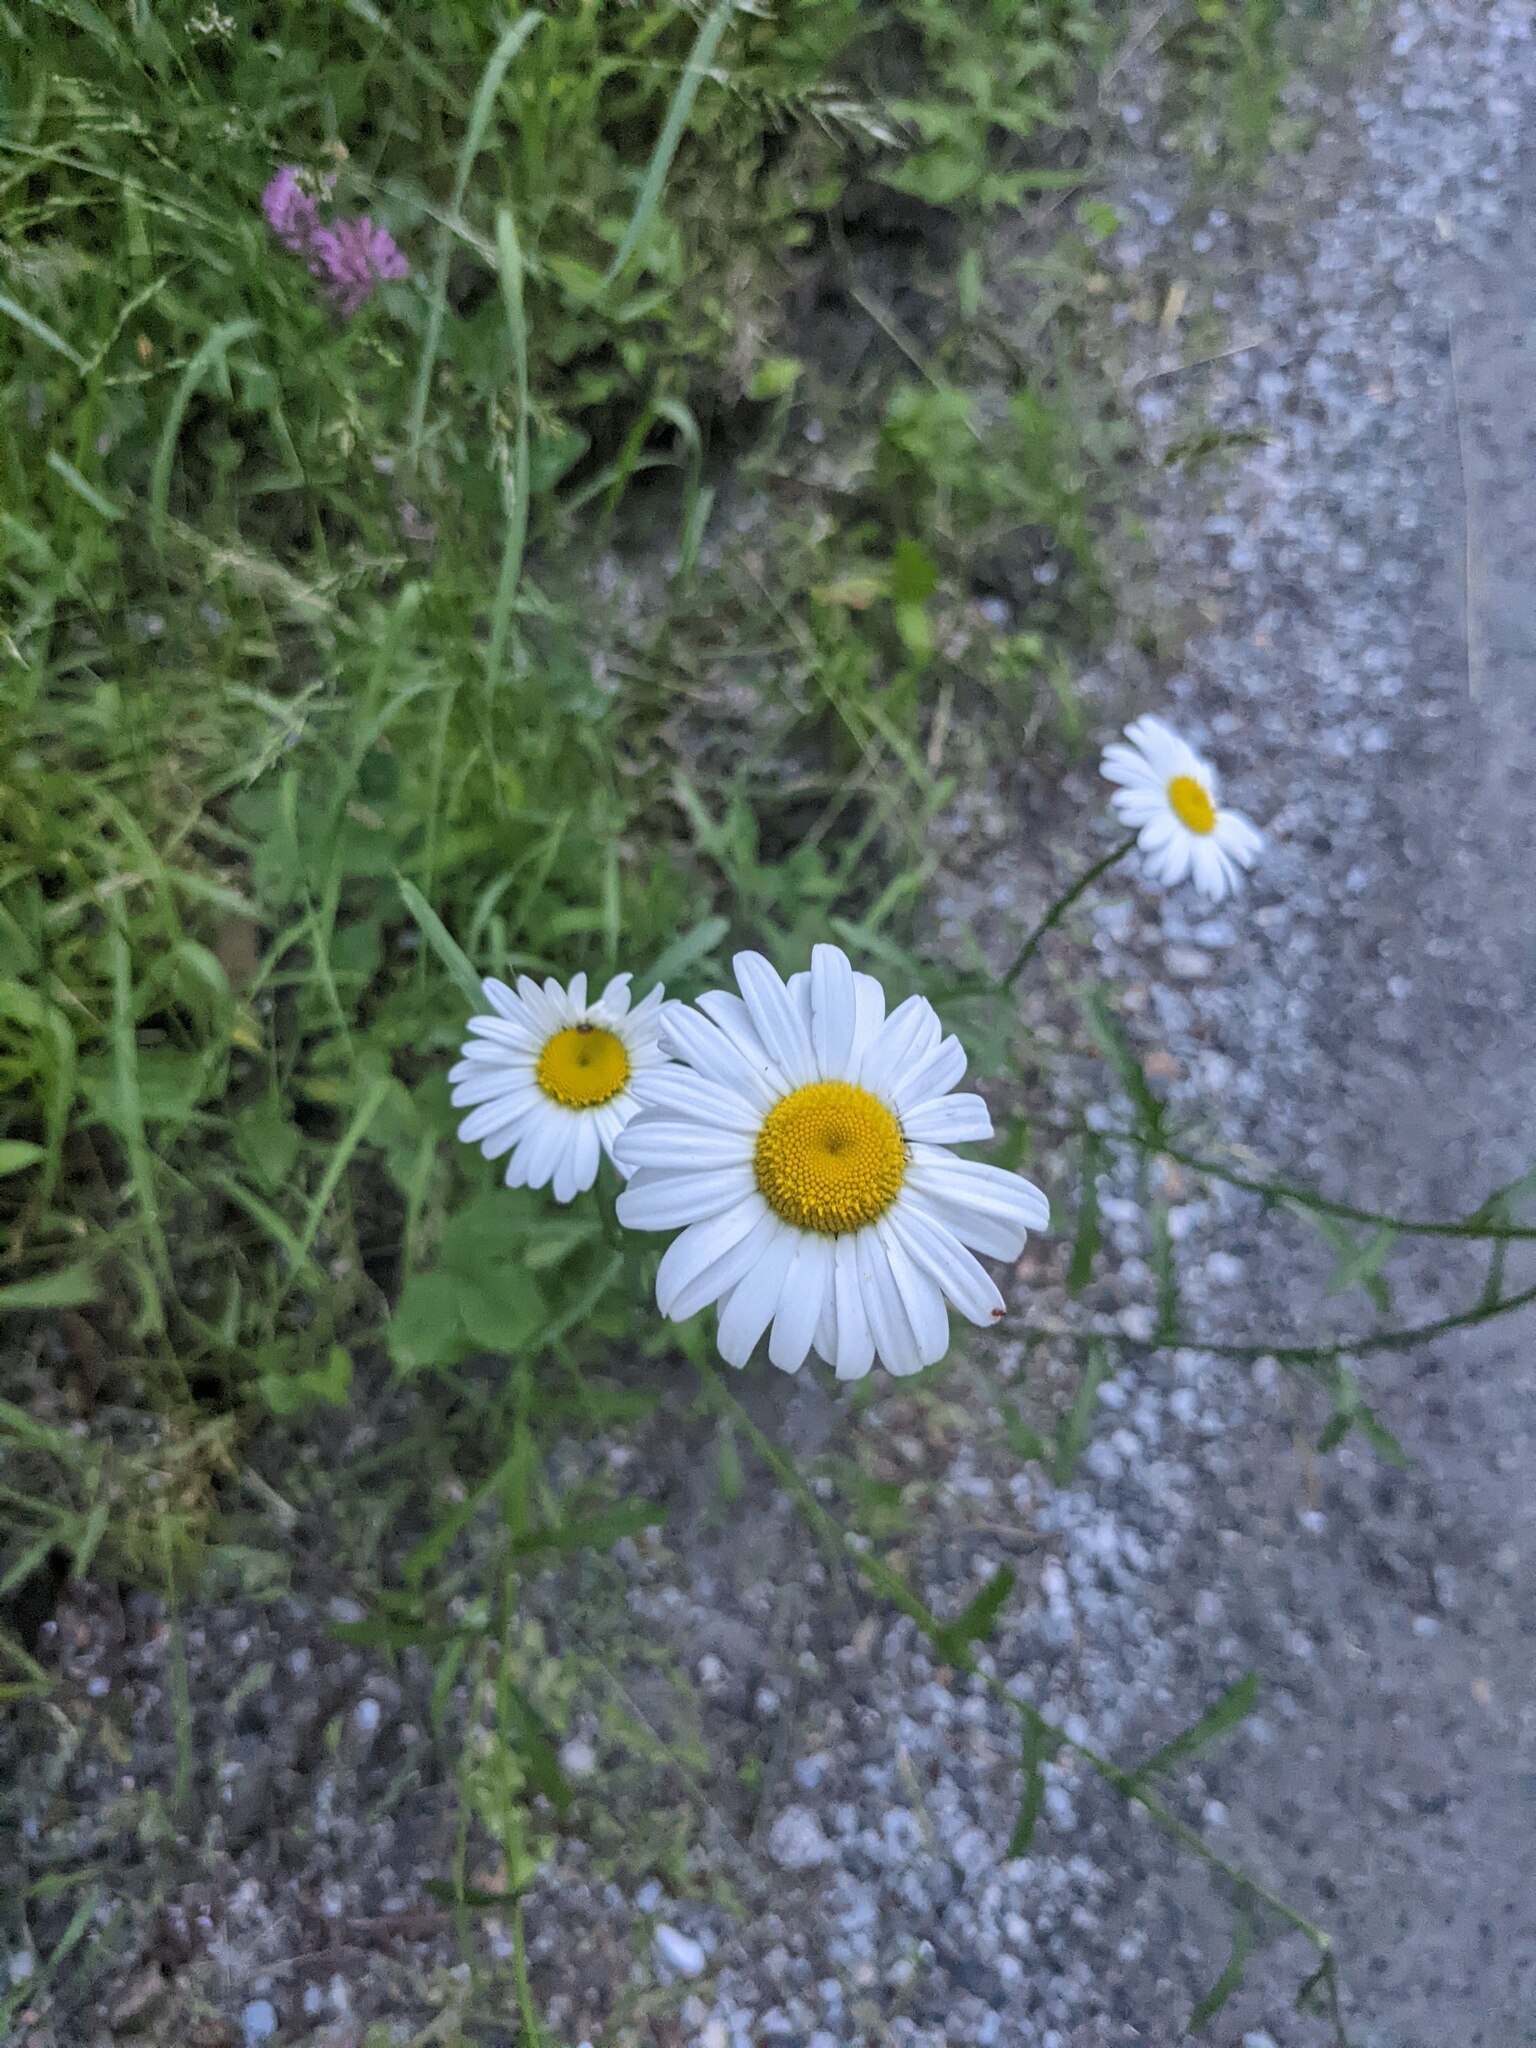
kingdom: Plantae
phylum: Tracheophyta
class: Magnoliopsida
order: Asterales
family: Asteraceae
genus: Leucanthemum
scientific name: Leucanthemum vulgare
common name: Oxeye daisy
